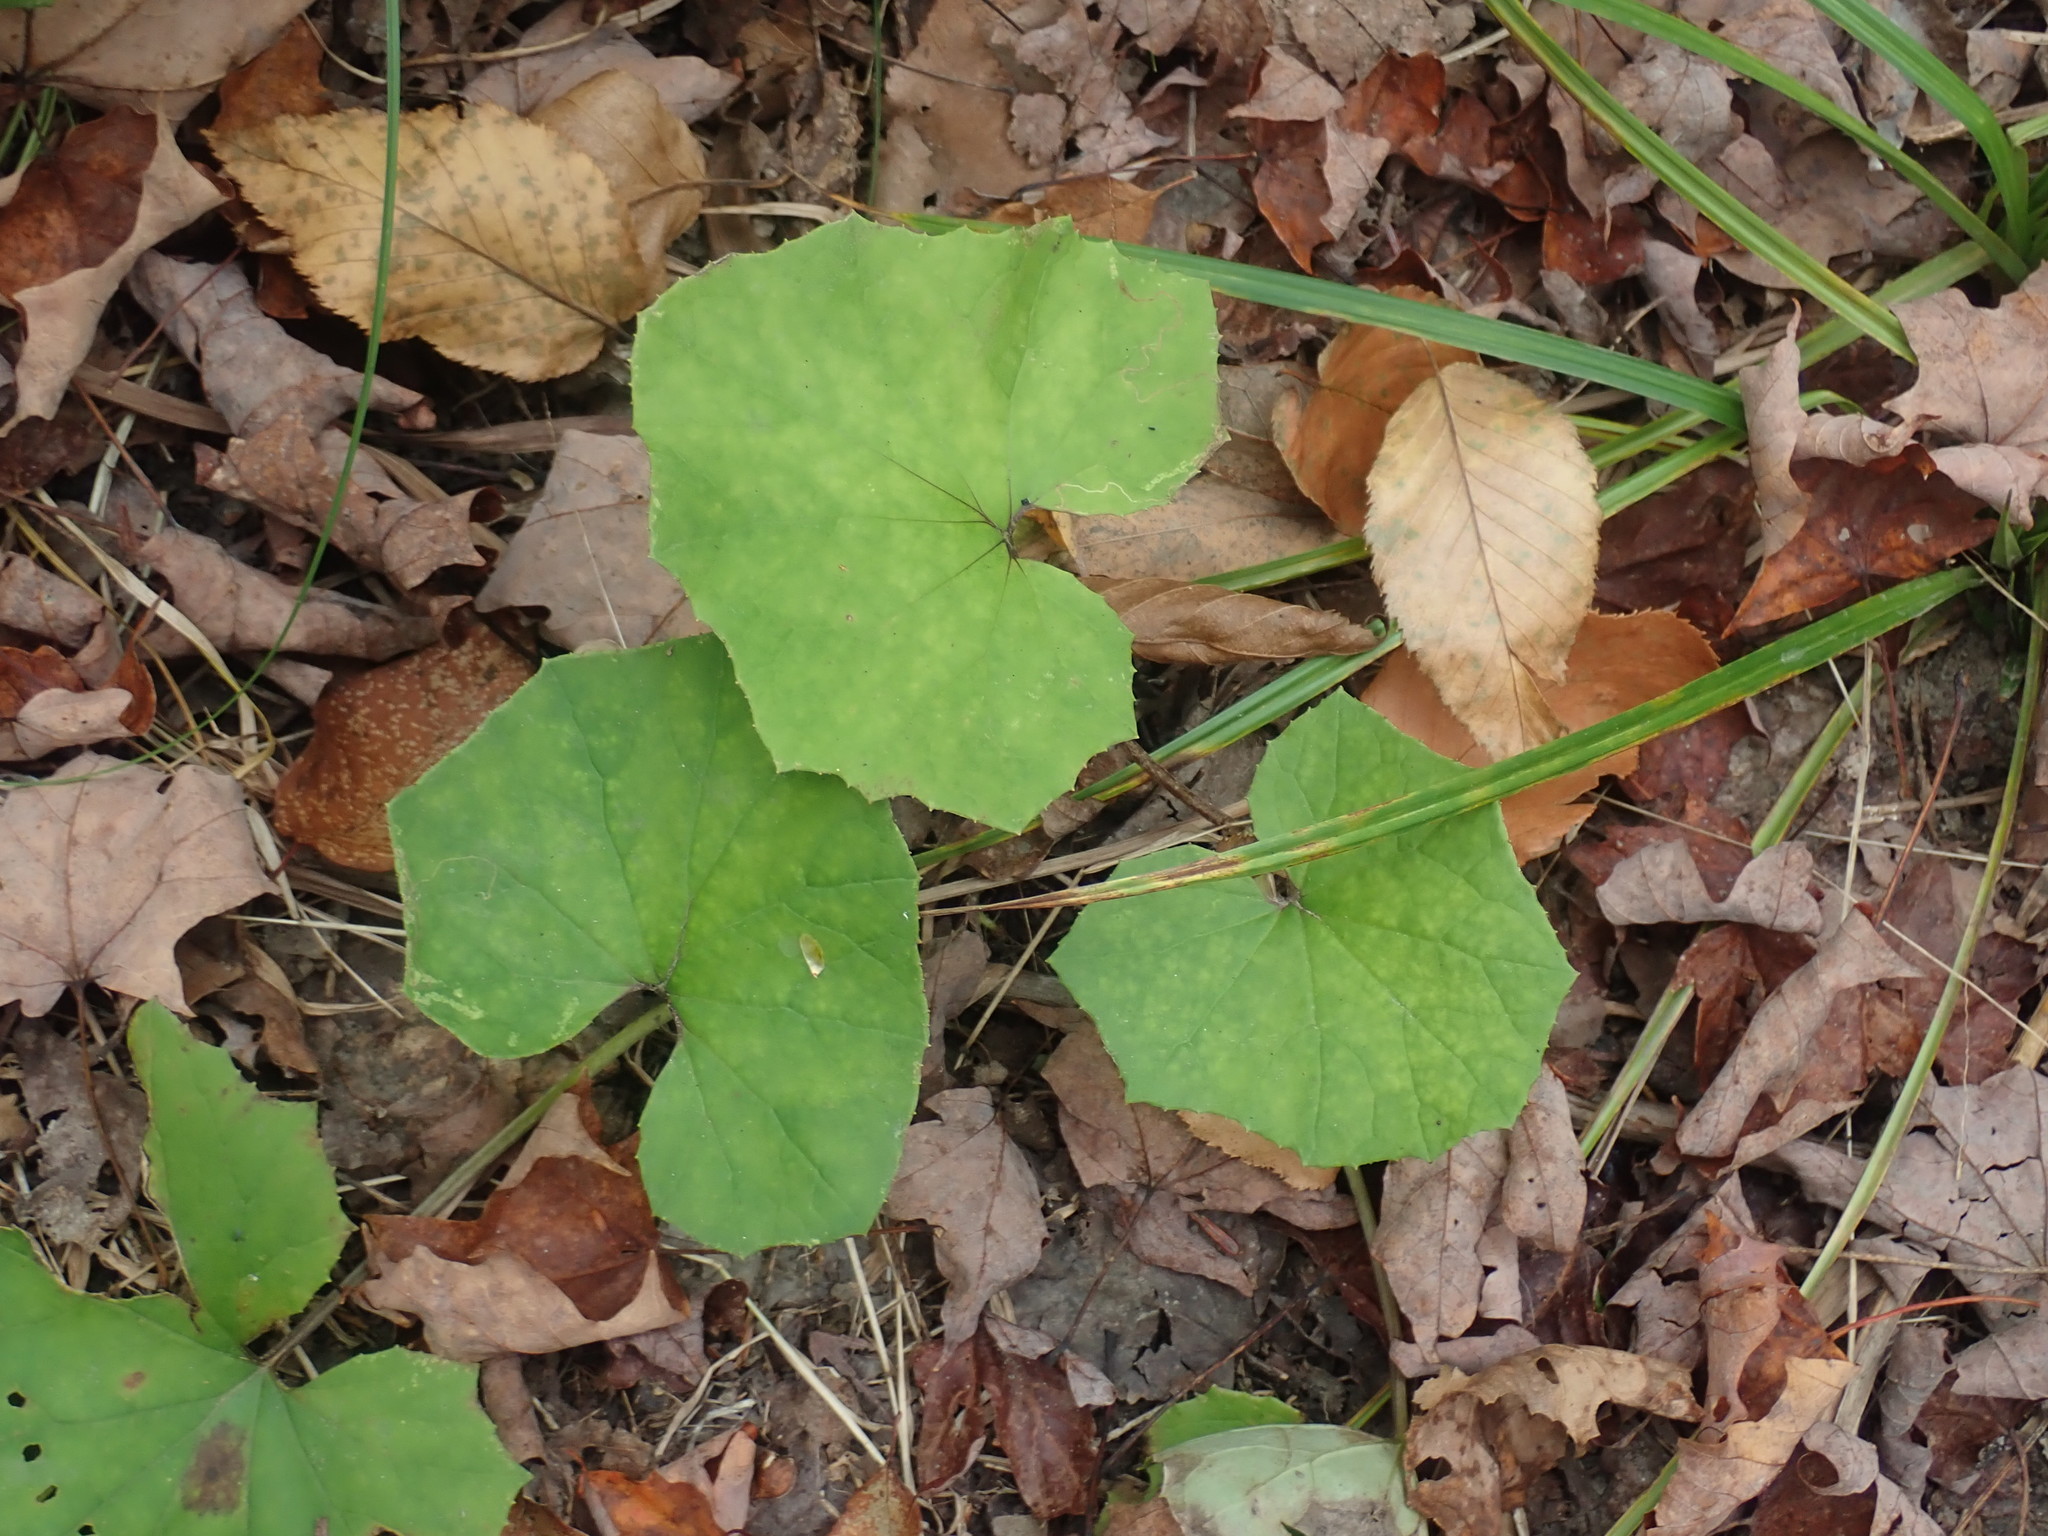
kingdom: Plantae
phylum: Tracheophyta
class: Magnoliopsida
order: Asterales
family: Asteraceae
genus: Tussilago
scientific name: Tussilago farfara
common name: Coltsfoot
